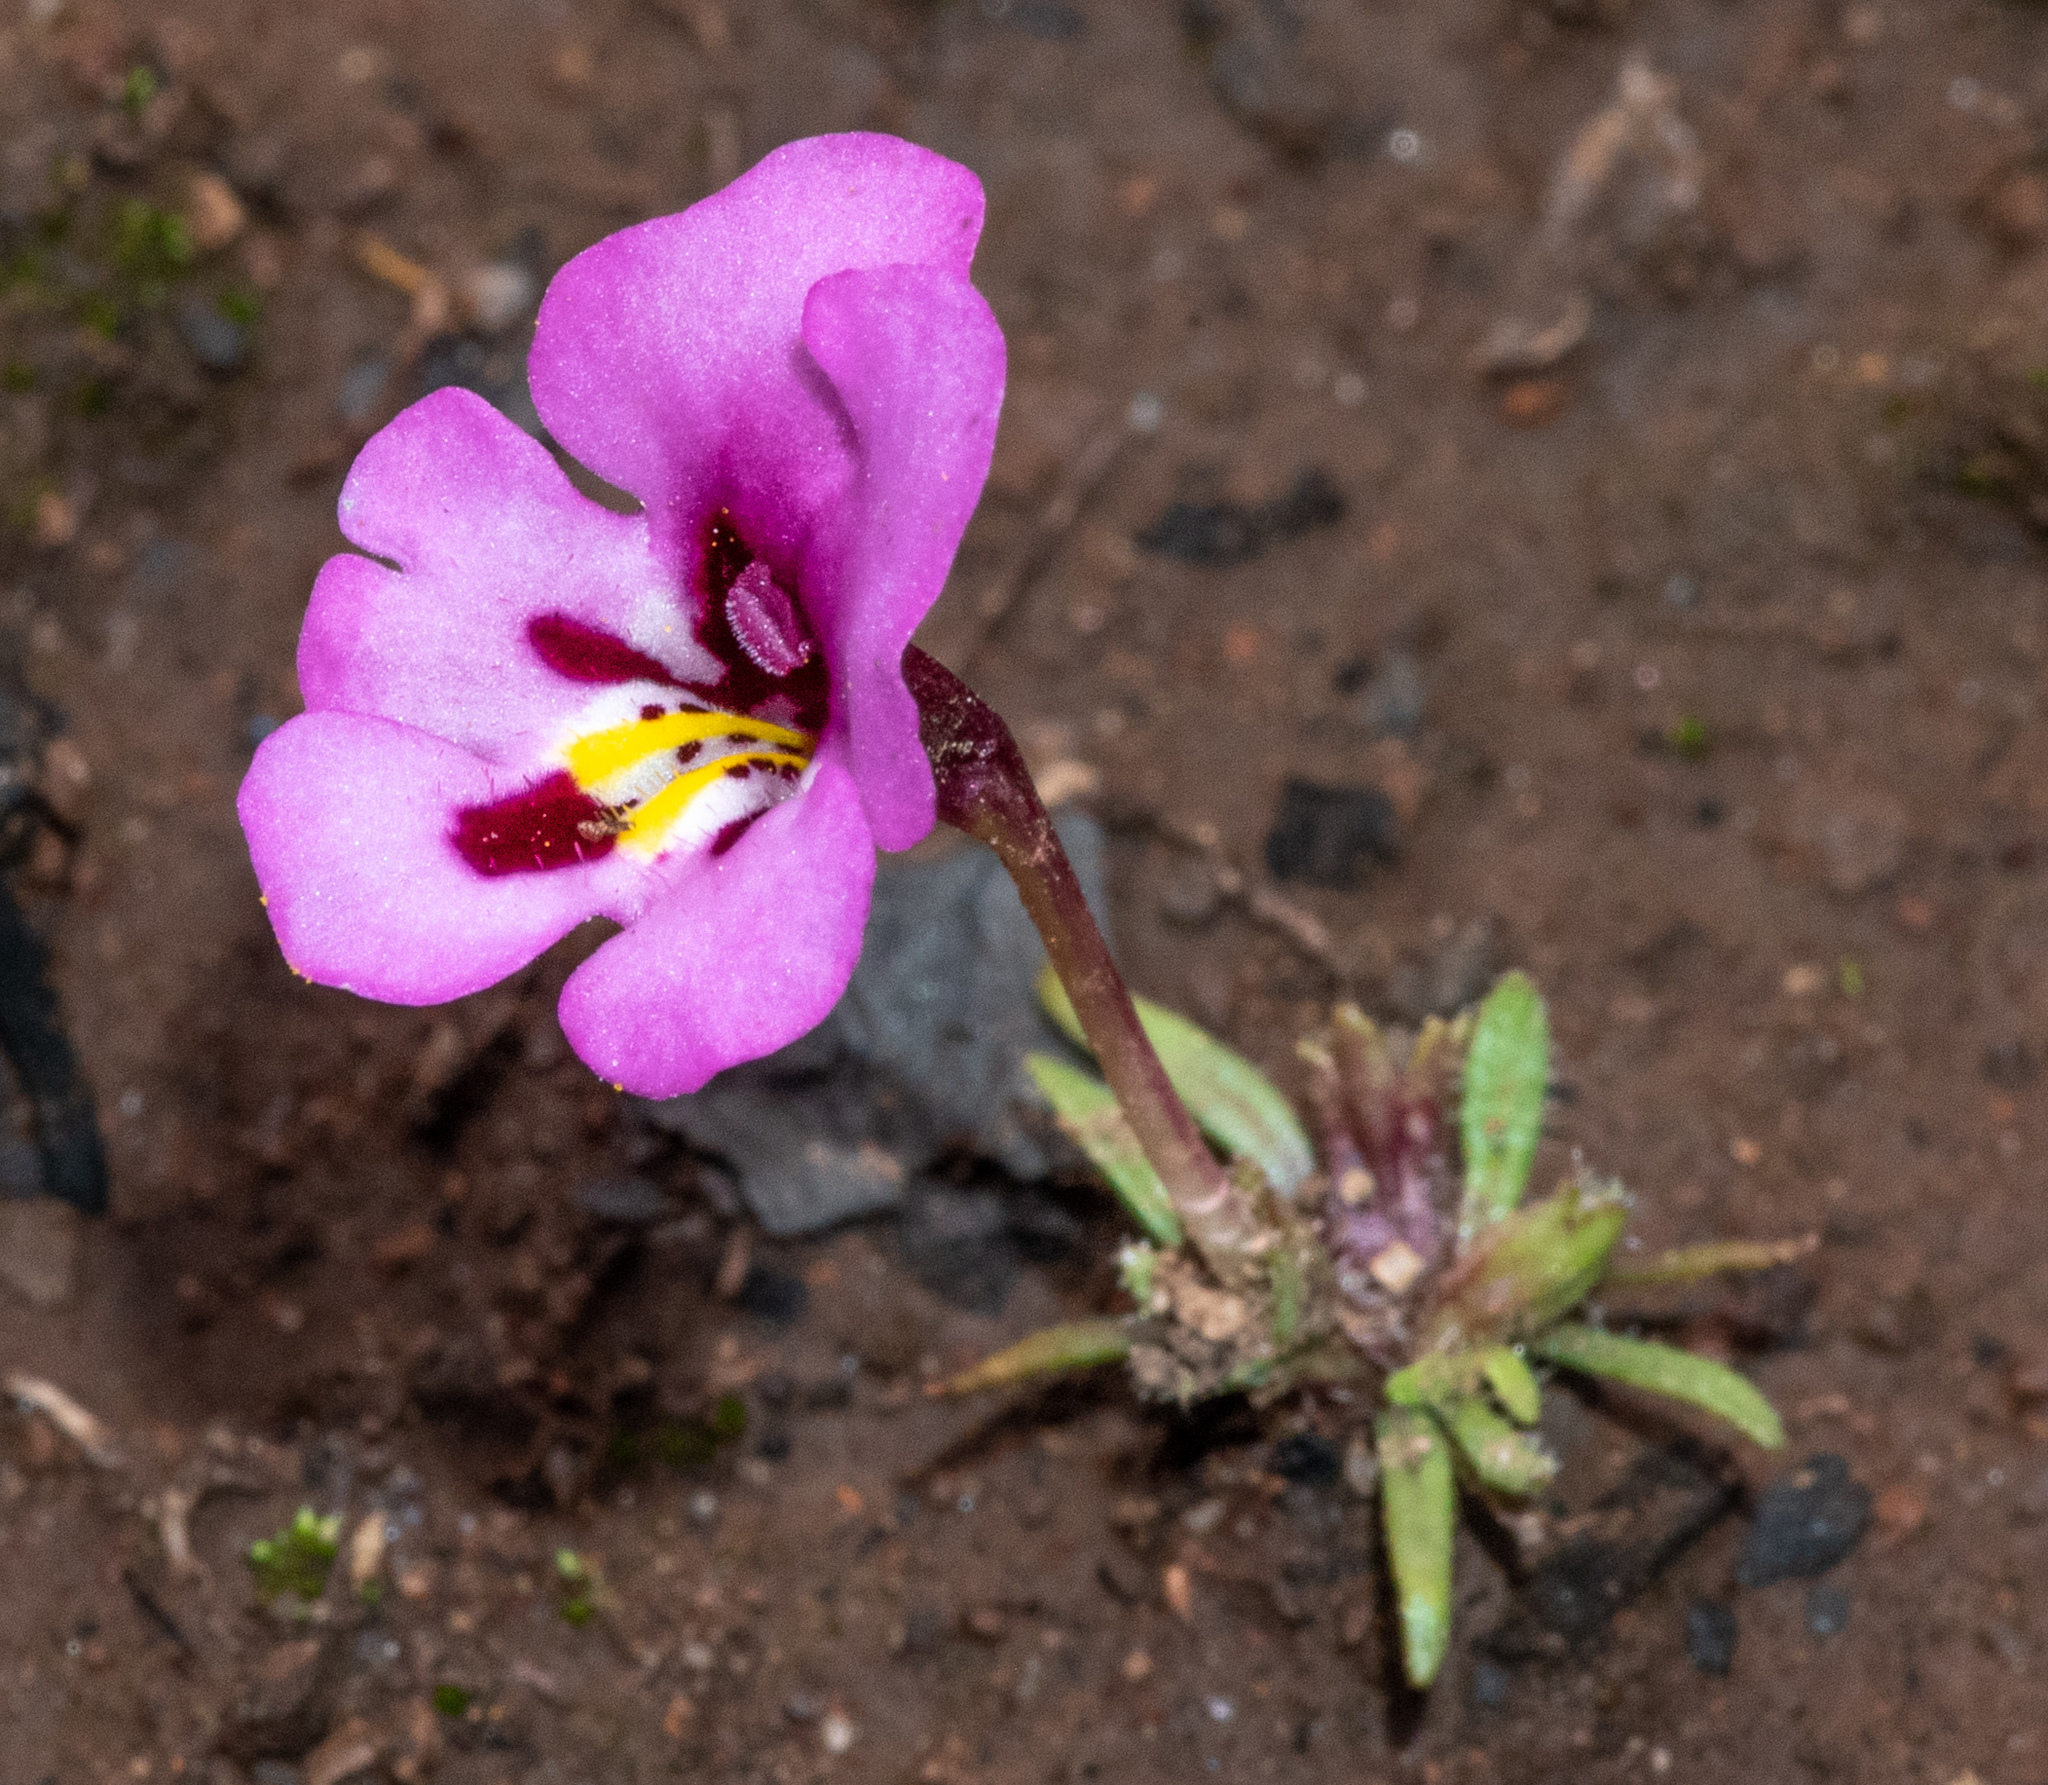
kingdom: Plantae
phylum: Tracheophyta
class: Magnoliopsida
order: Lamiales
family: Phrymaceae
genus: Diplacus
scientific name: Diplacus angustatus
